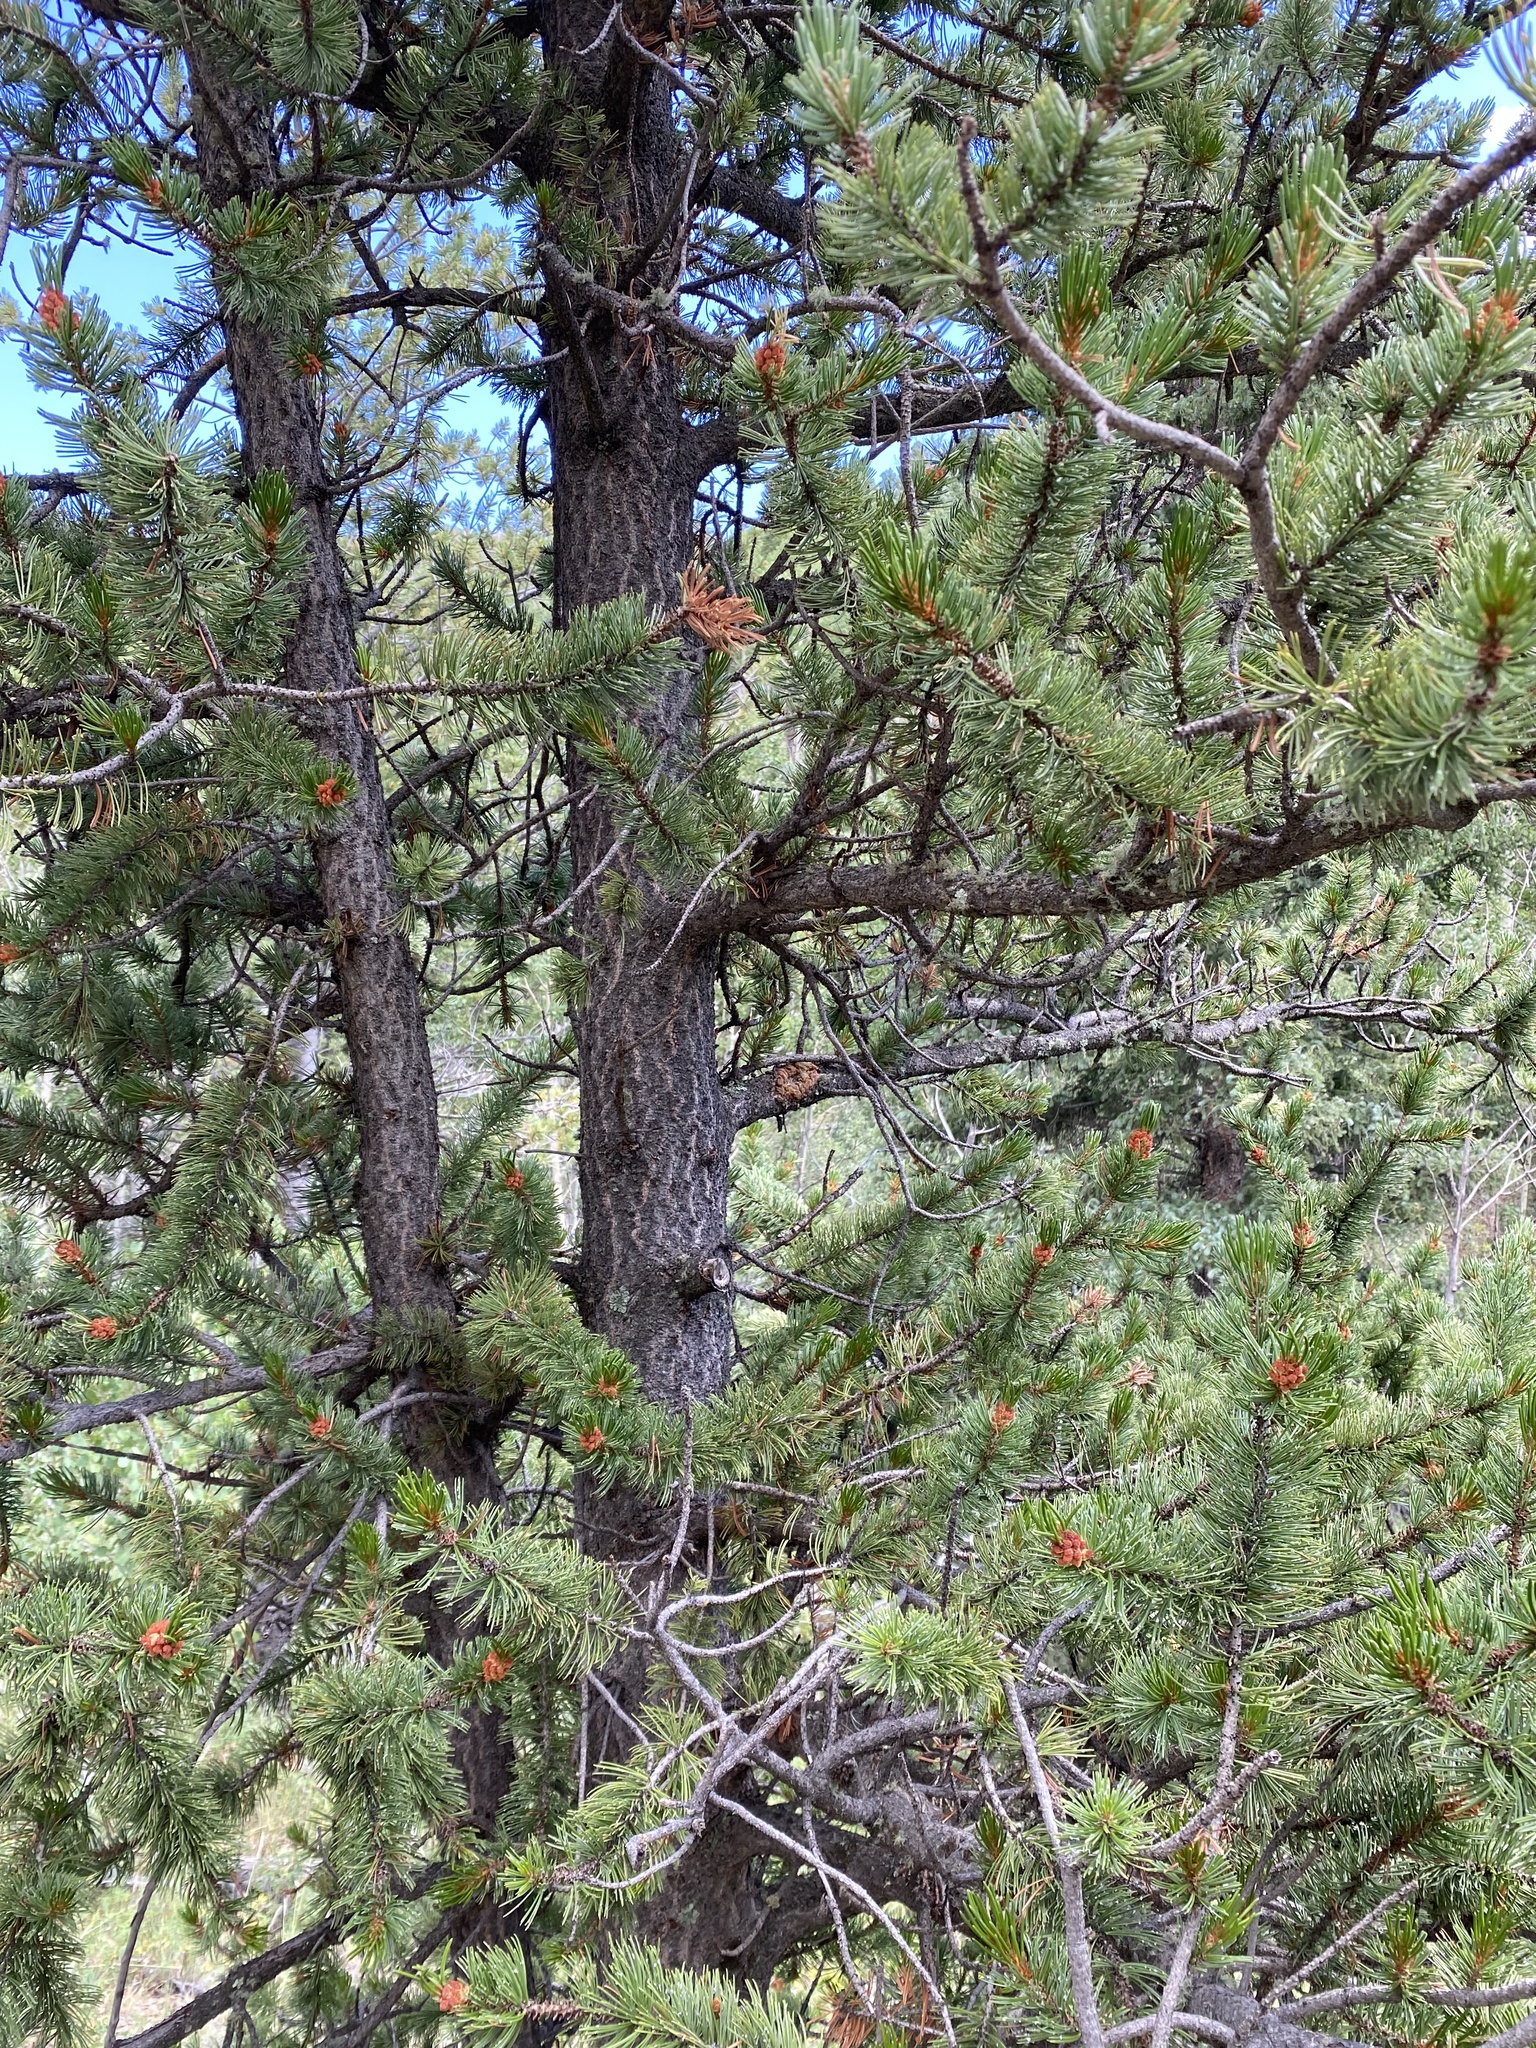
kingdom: Plantae
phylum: Tracheophyta
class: Pinopsida
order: Pinales
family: Pinaceae
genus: Pinus
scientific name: Pinus aristata
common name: Colorado bristlecone pine
